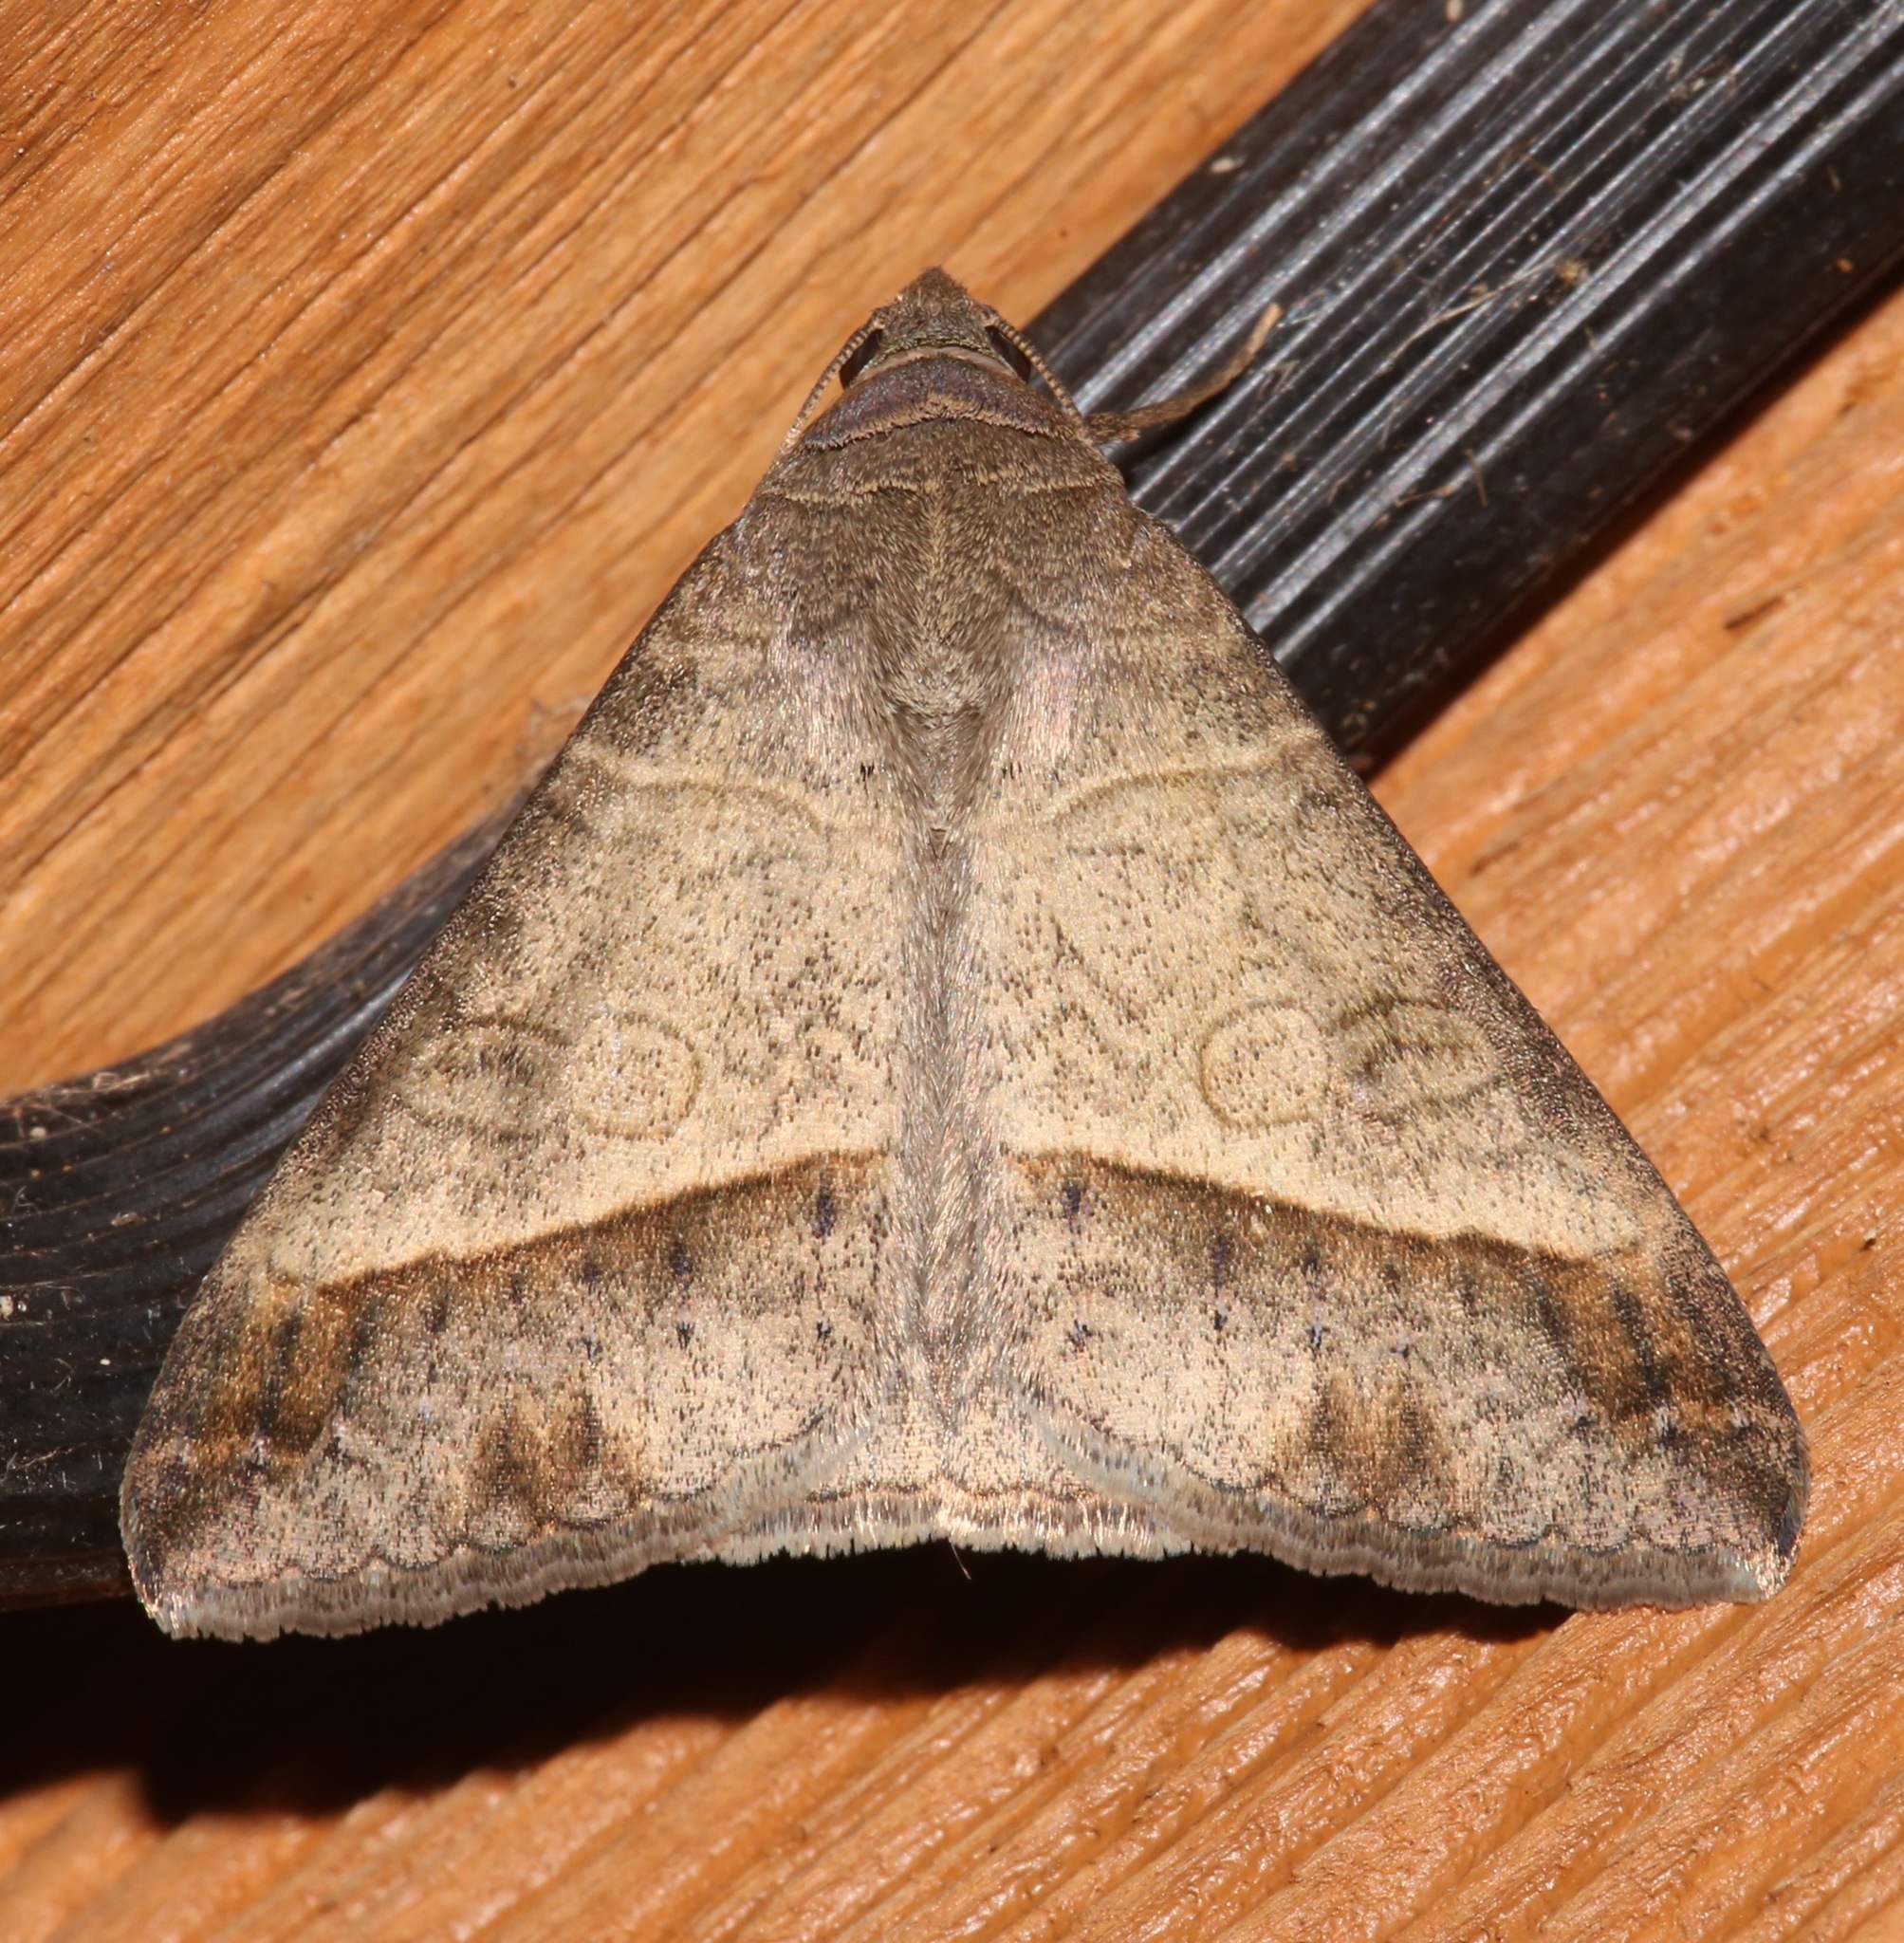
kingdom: Animalia
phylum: Arthropoda
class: Insecta
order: Lepidoptera
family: Erebidae
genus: Mocis
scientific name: Mocis latipes
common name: Striped grass looper
